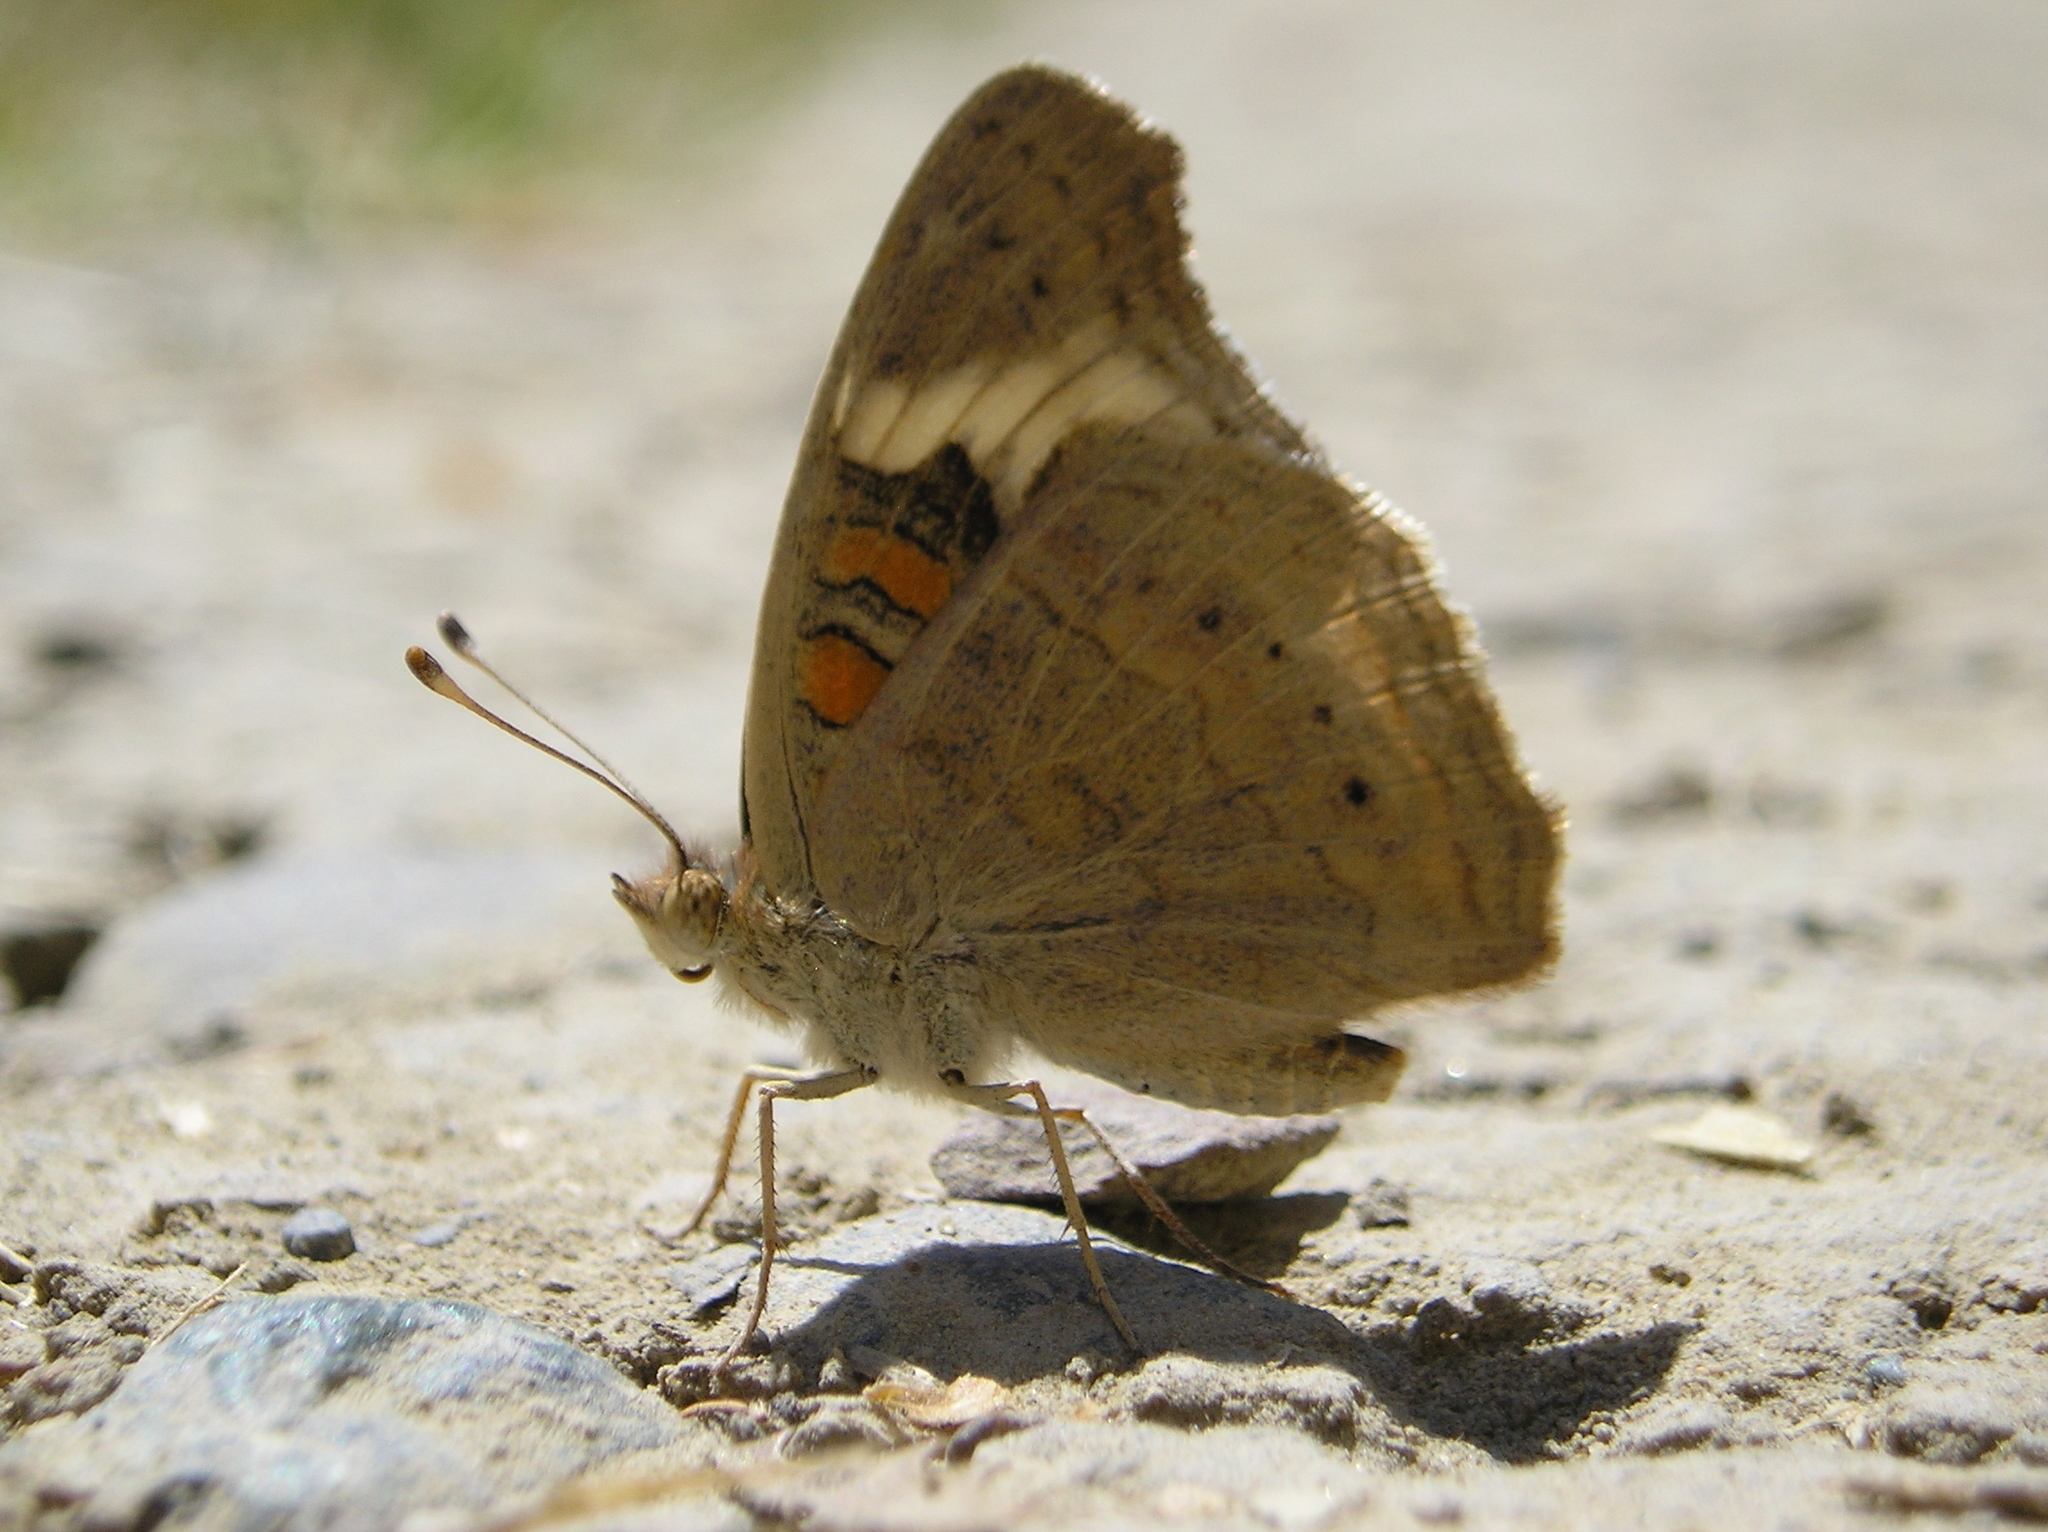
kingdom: Animalia
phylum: Arthropoda
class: Insecta
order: Lepidoptera
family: Nymphalidae
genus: Junonia
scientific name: Junonia grisea
